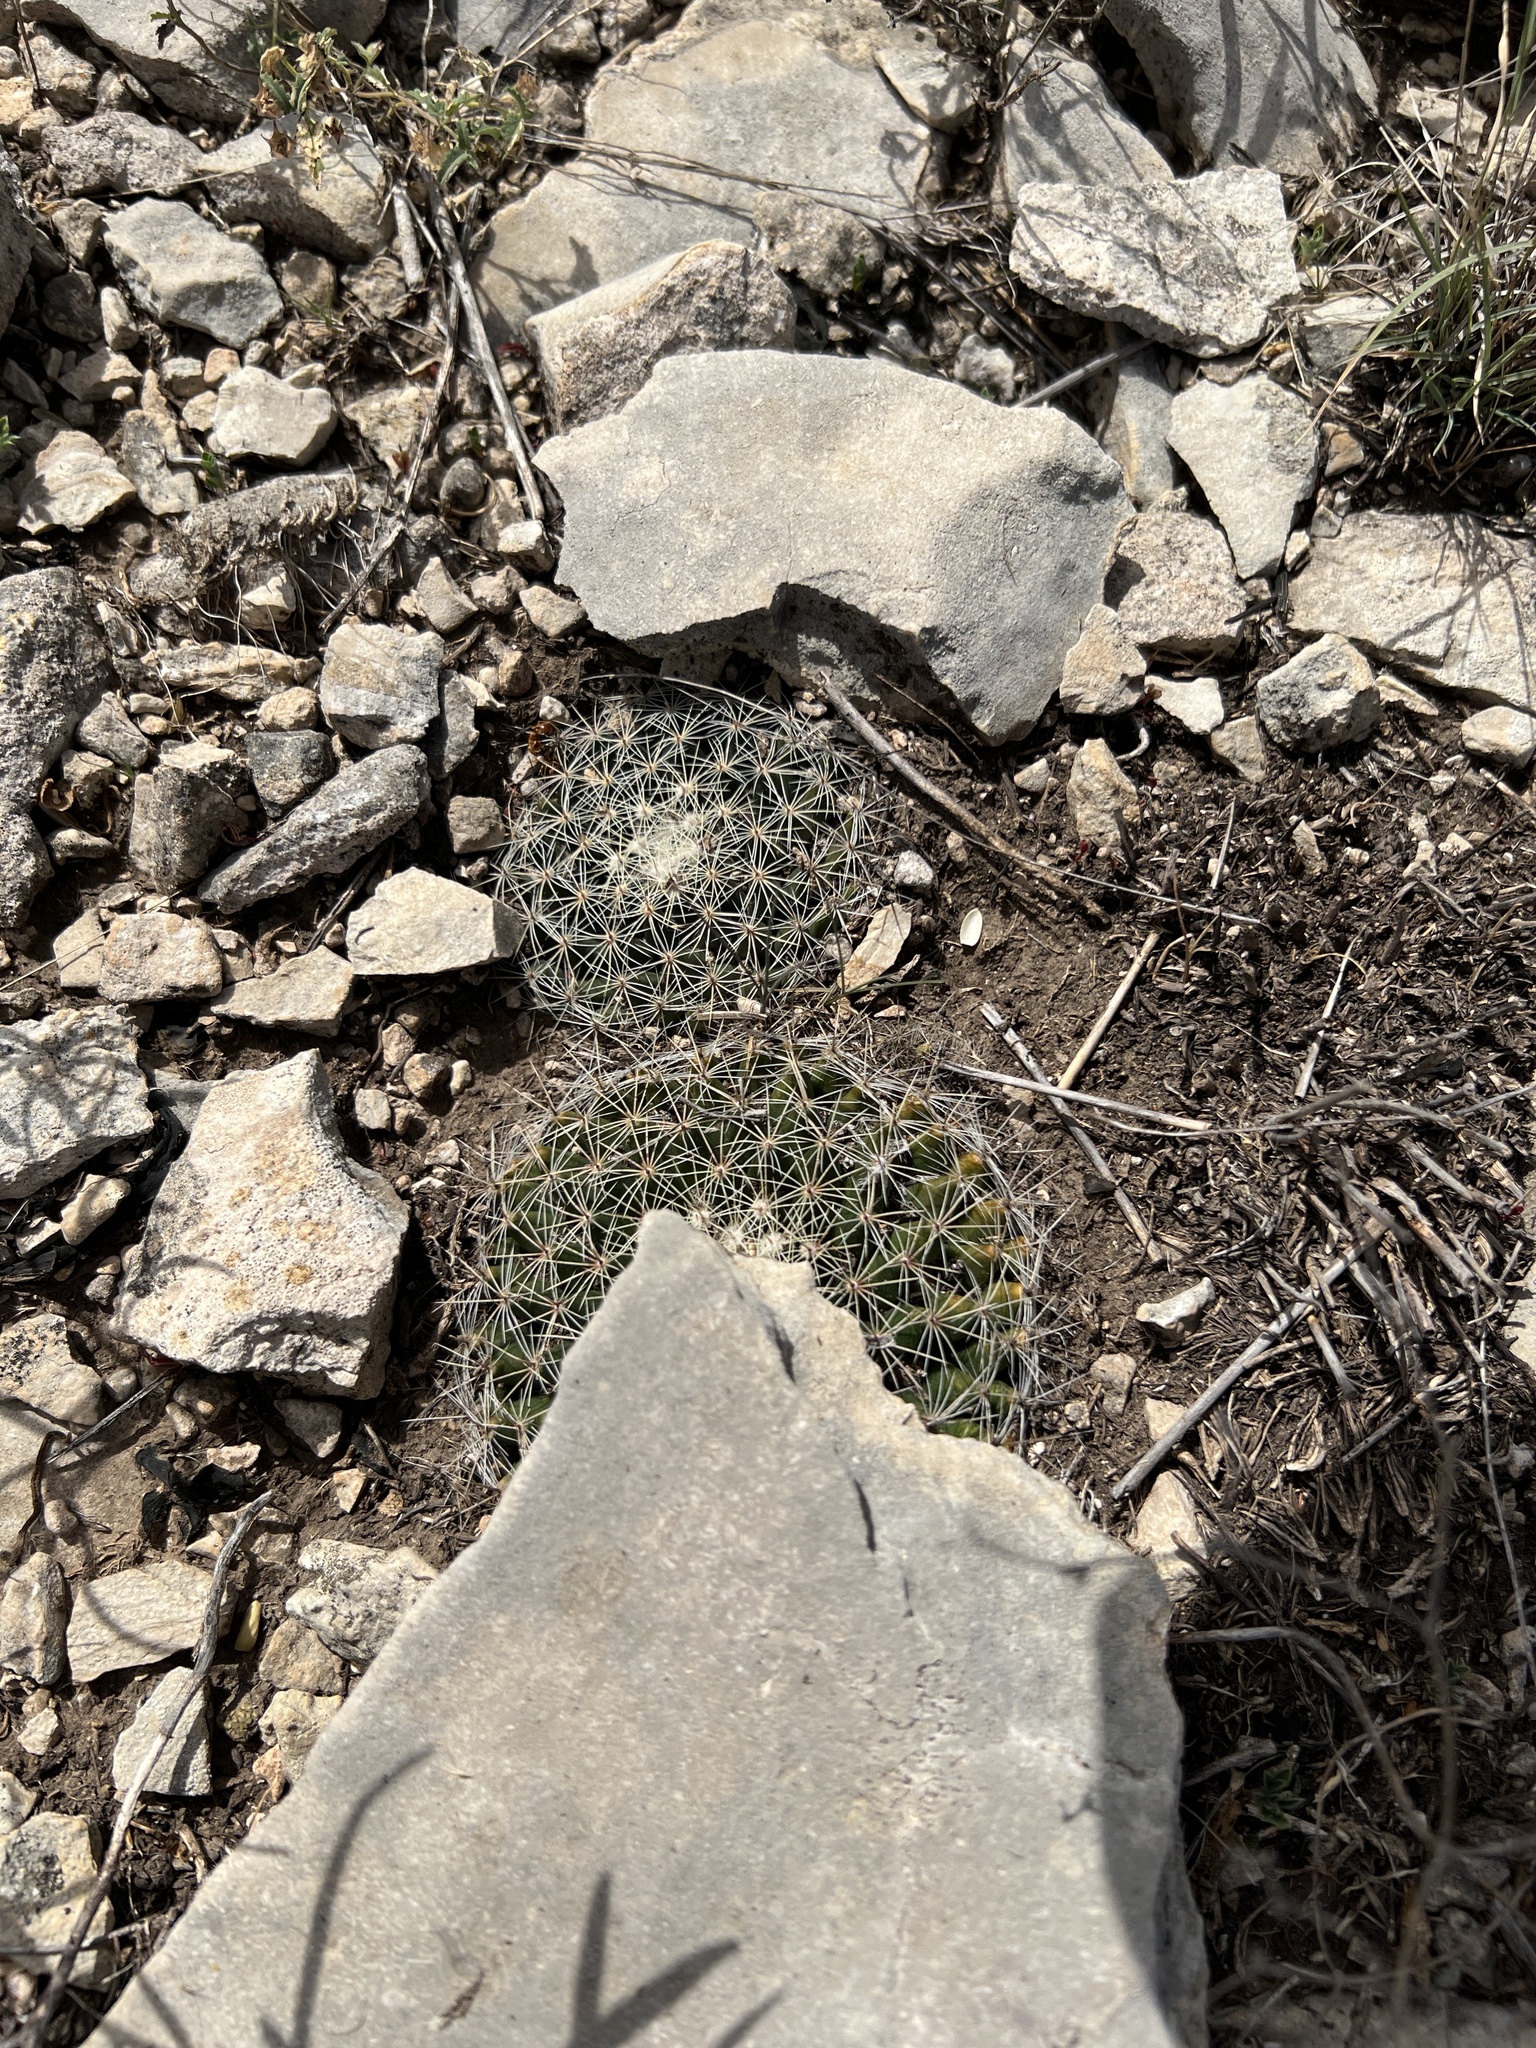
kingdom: Plantae
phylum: Tracheophyta
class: Magnoliopsida
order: Caryophyllales
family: Cactaceae
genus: Mammillaria
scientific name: Mammillaria heyderi
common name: Little nipple cactus
